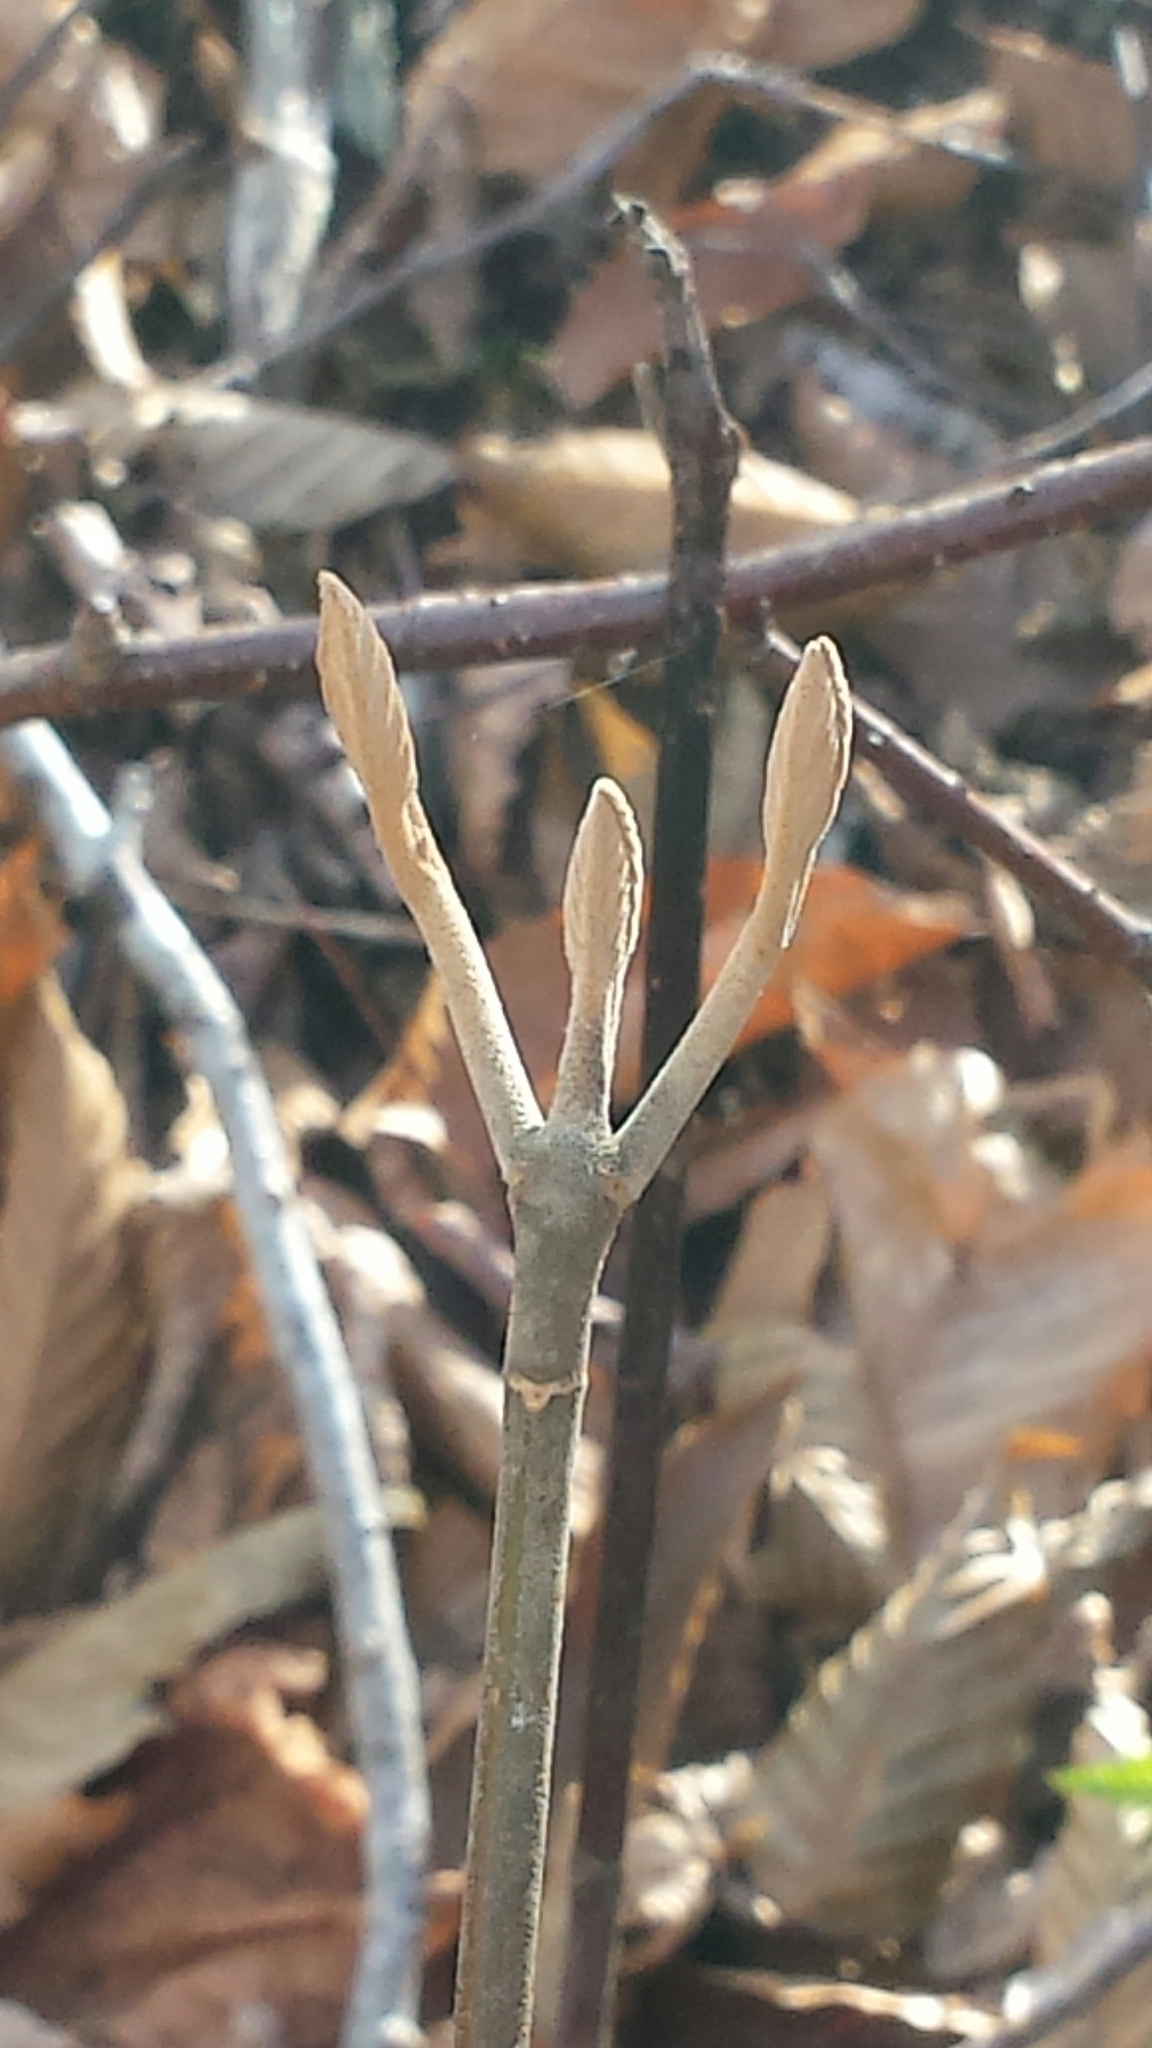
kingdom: Plantae
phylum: Tracheophyta
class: Magnoliopsida
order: Dipsacales
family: Viburnaceae
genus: Viburnum
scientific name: Viburnum lantanoides
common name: Hobblebush
